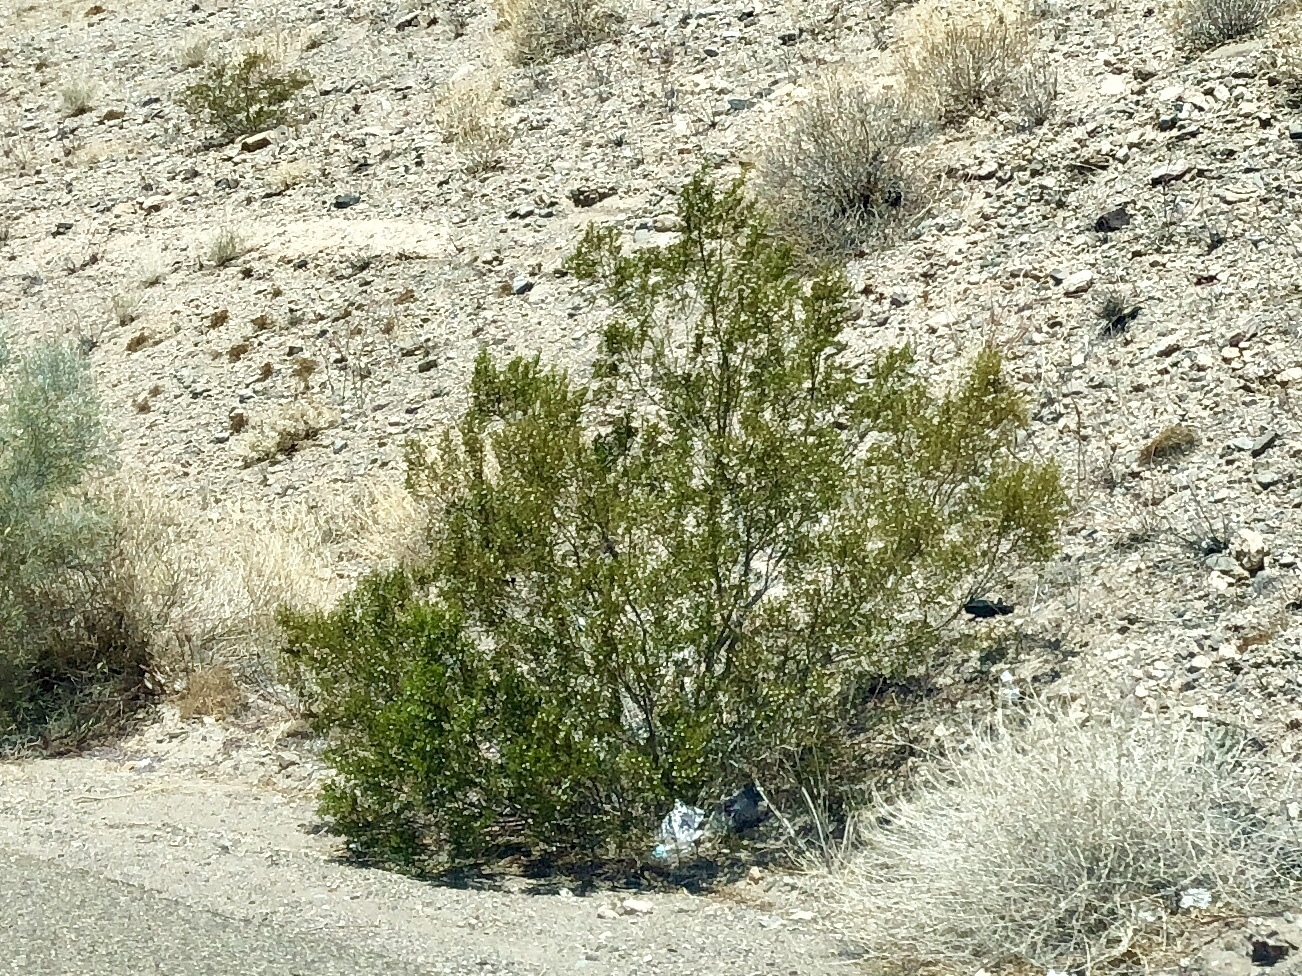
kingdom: Plantae
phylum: Tracheophyta
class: Magnoliopsida
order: Zygophyllales
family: Zygophyllaceae
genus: Larrea
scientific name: Larrea tridentata
